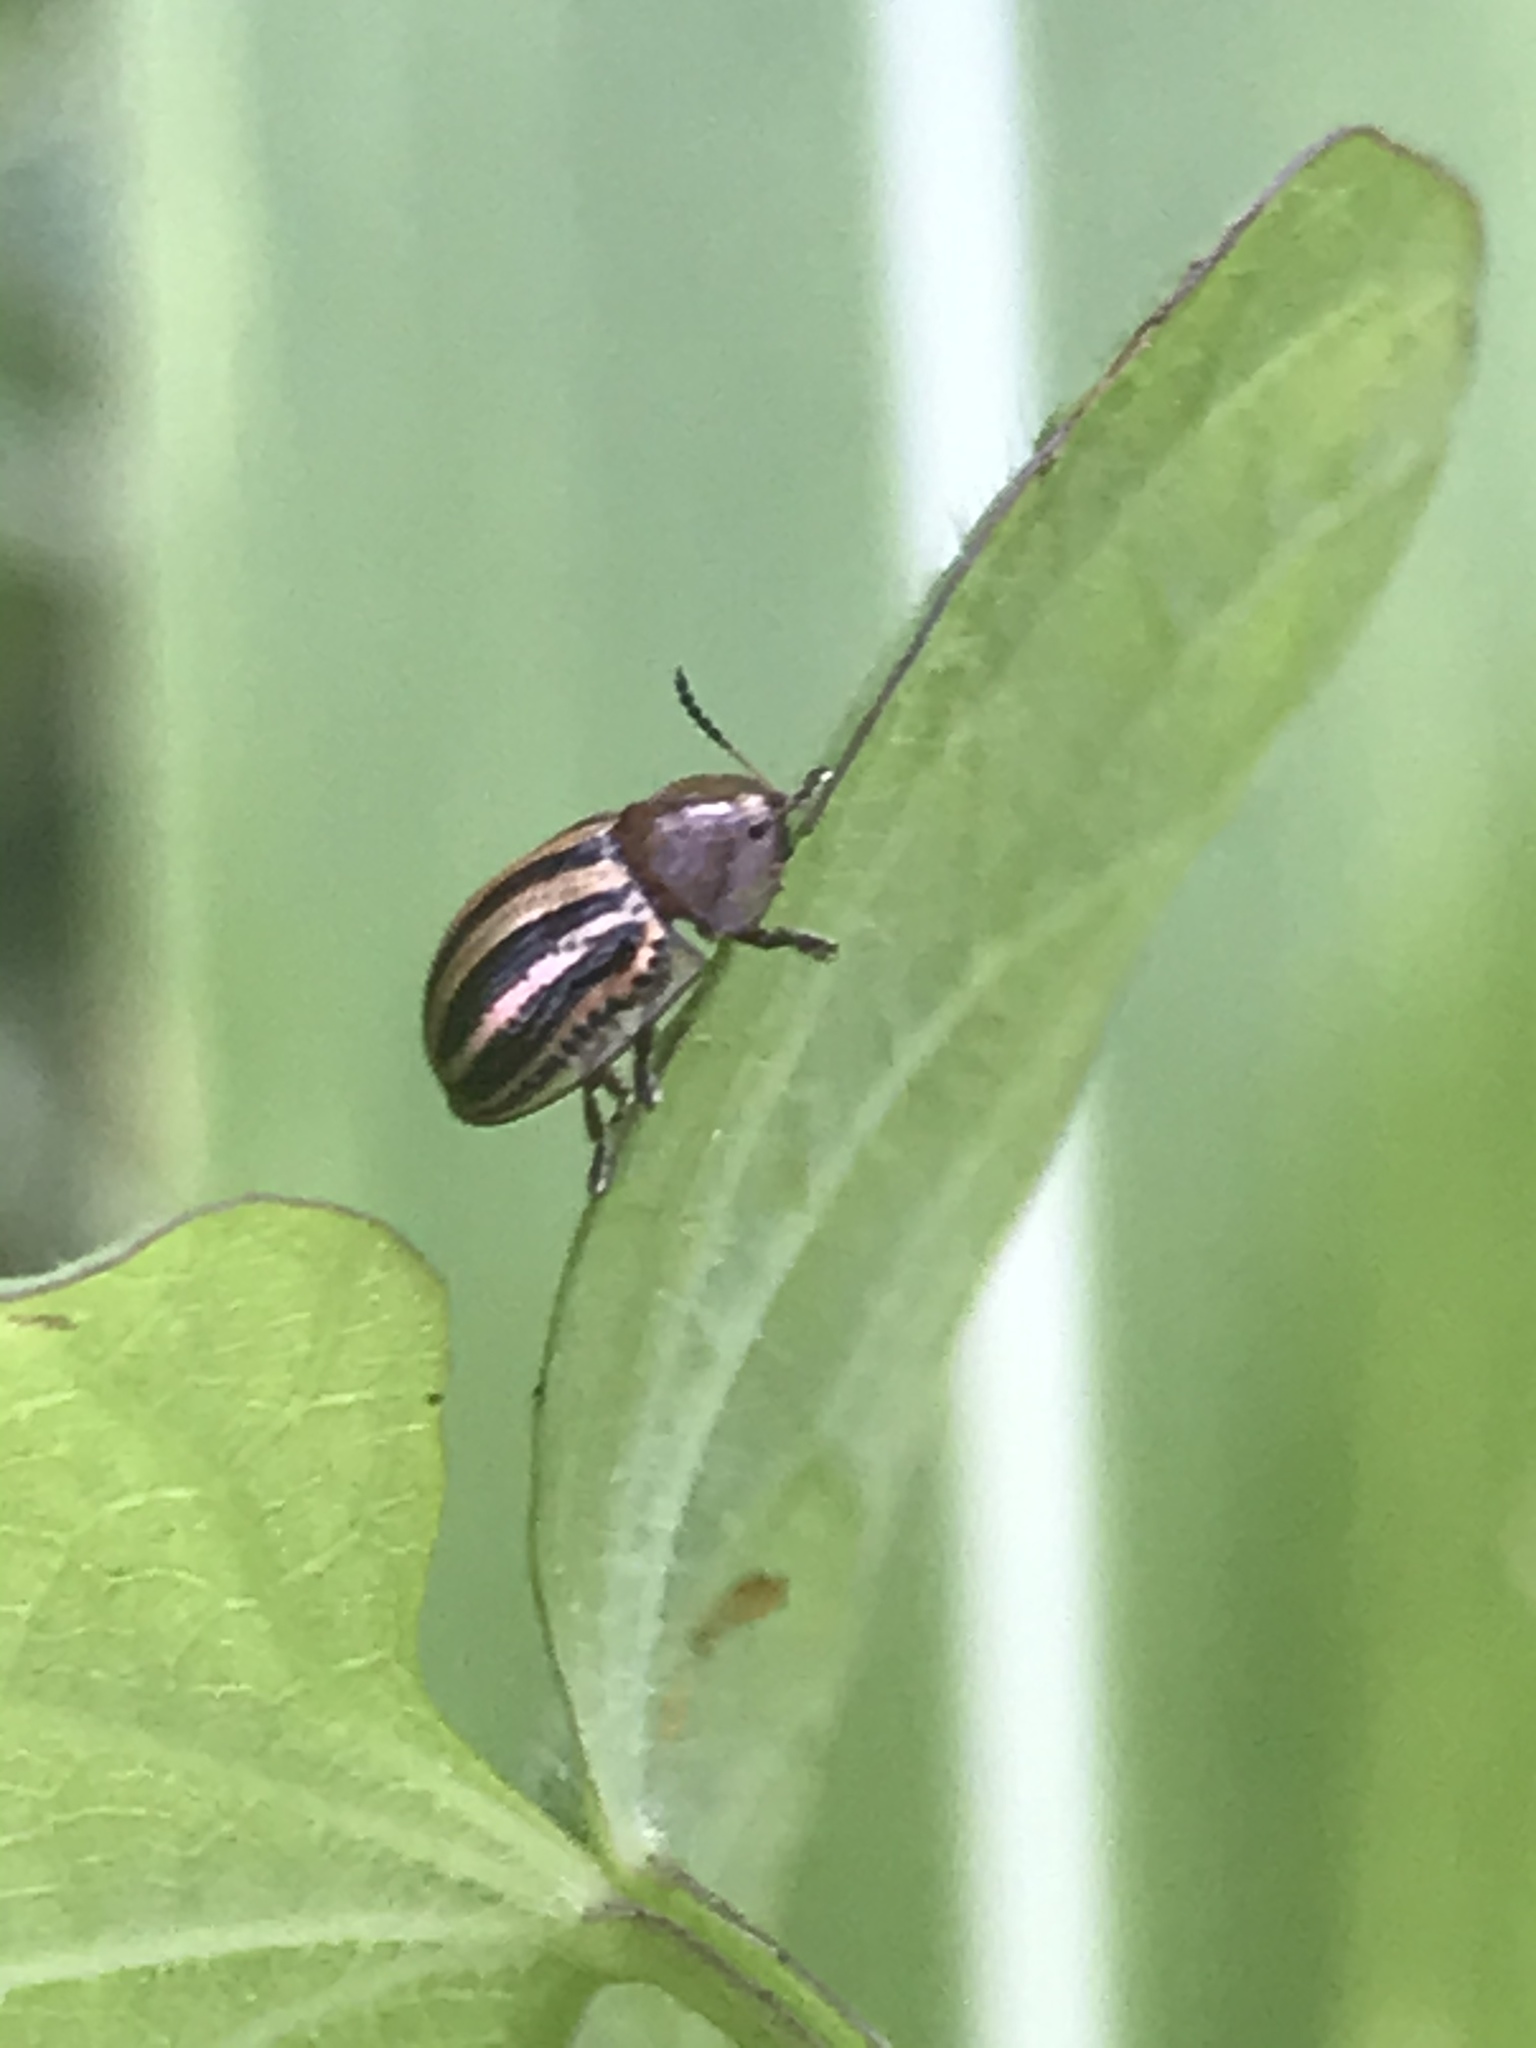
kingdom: Animalia
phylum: Arthropoda
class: Insecta
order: Coleoptera
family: Chrysomelidae
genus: Agroiconota
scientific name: Agroiconota bivittata
